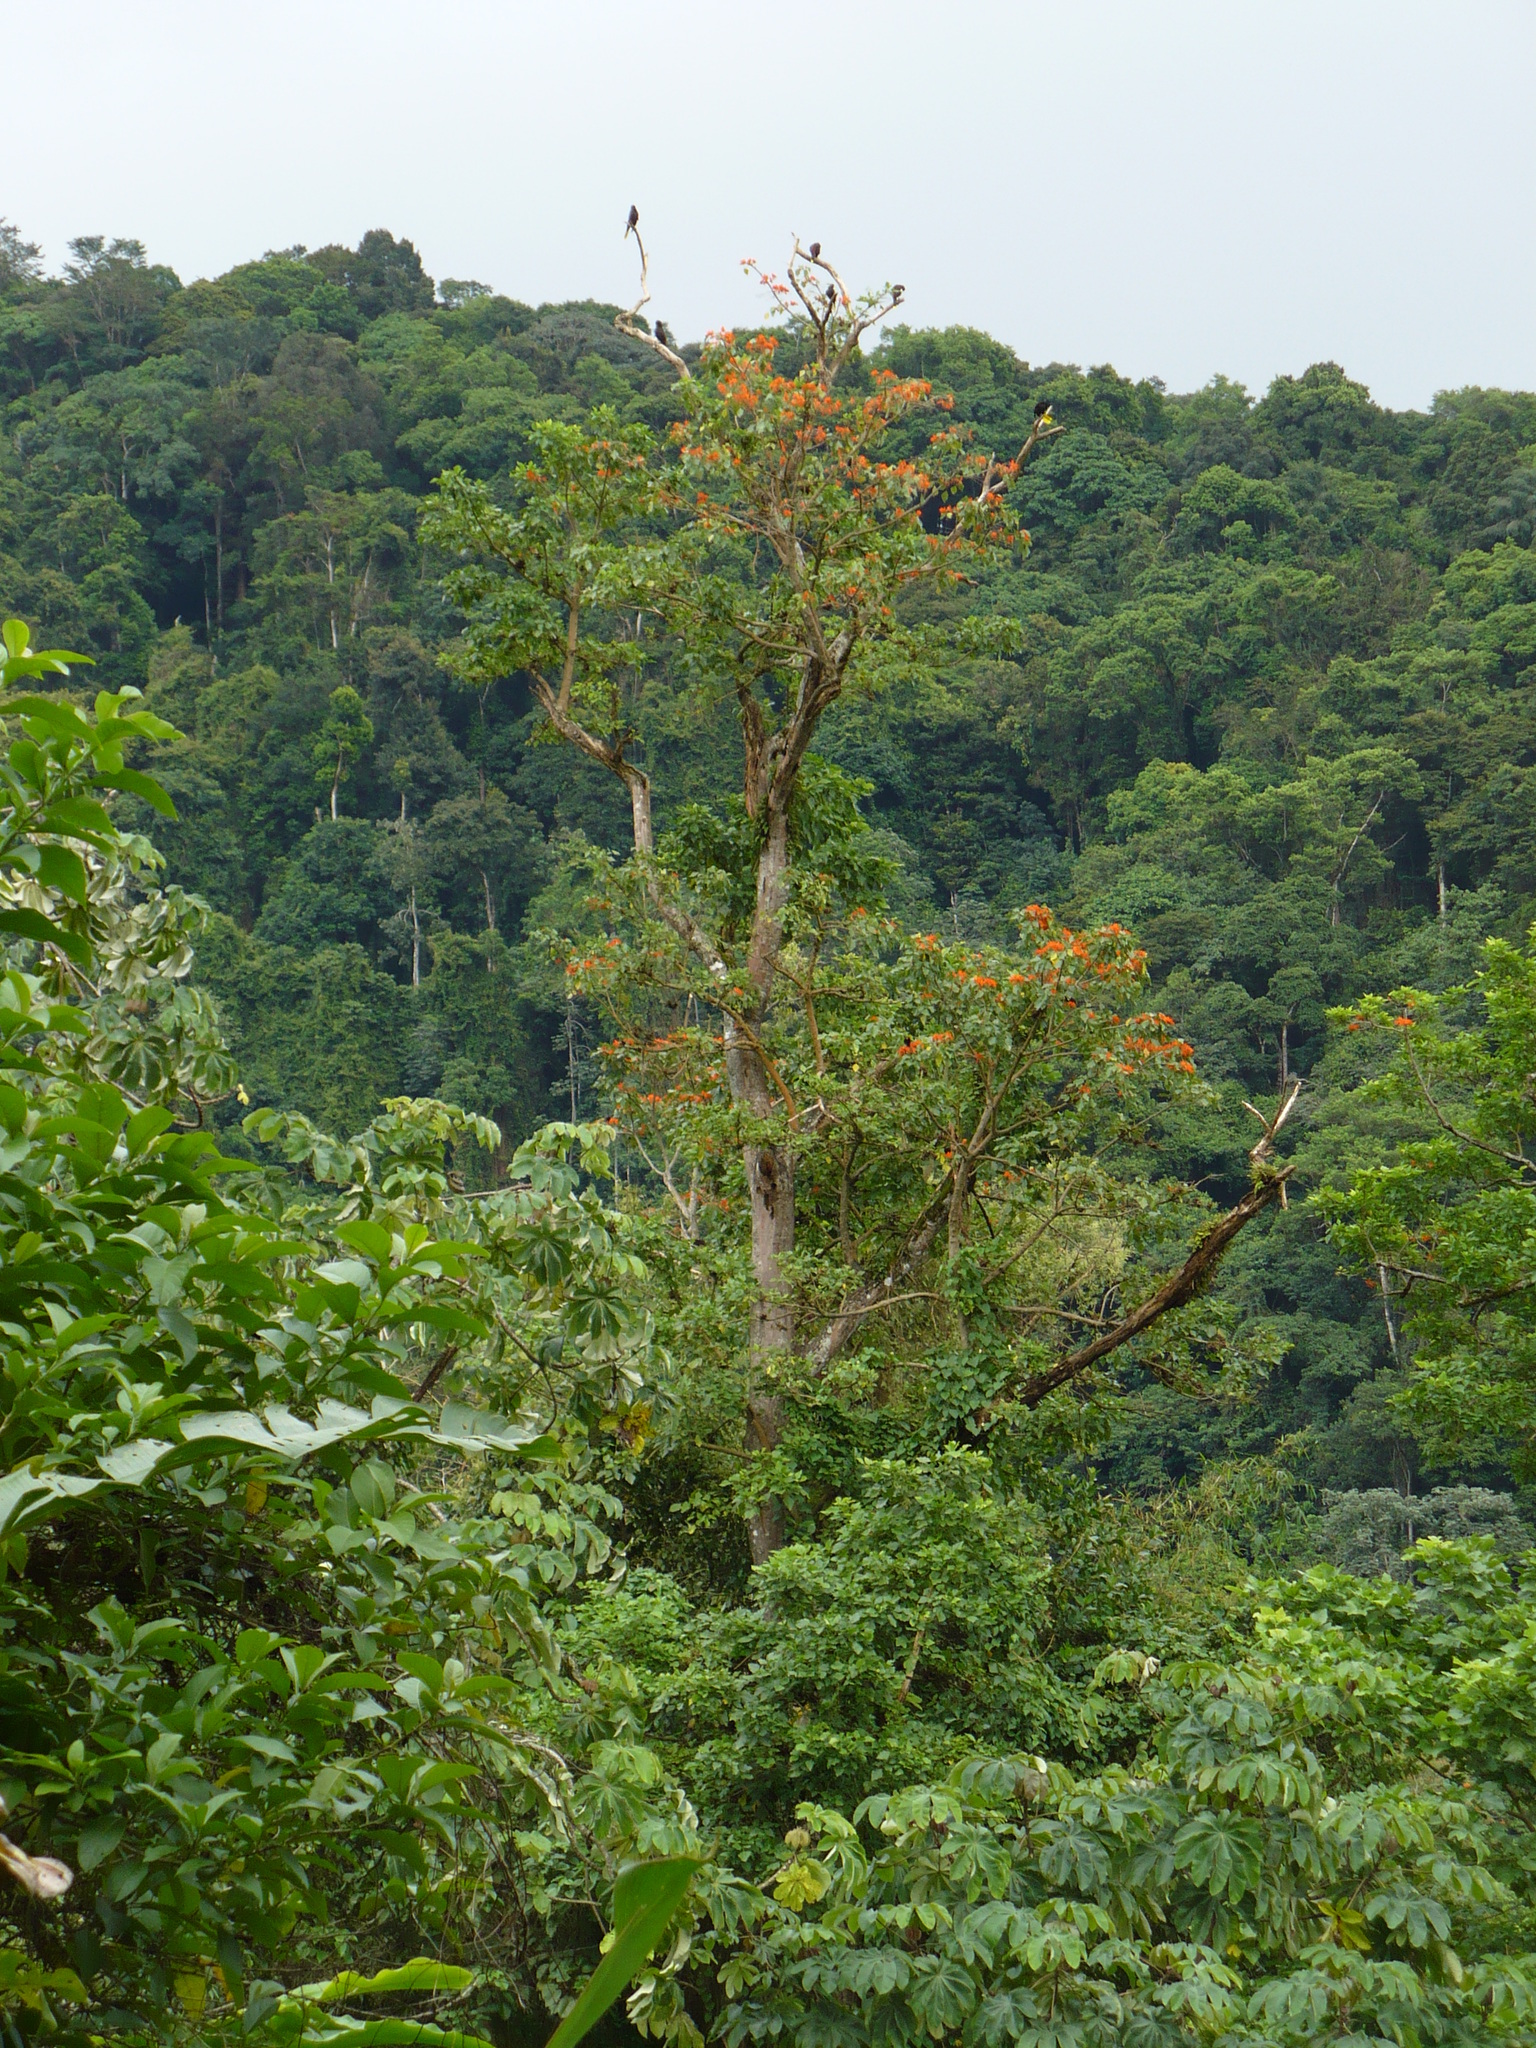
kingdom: Plantae
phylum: Tracheophyta
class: Magnoliopsida
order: Fabales
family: Fabaceae
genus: Erythrina
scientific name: Erythrina poeppigiana
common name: Coral tree
